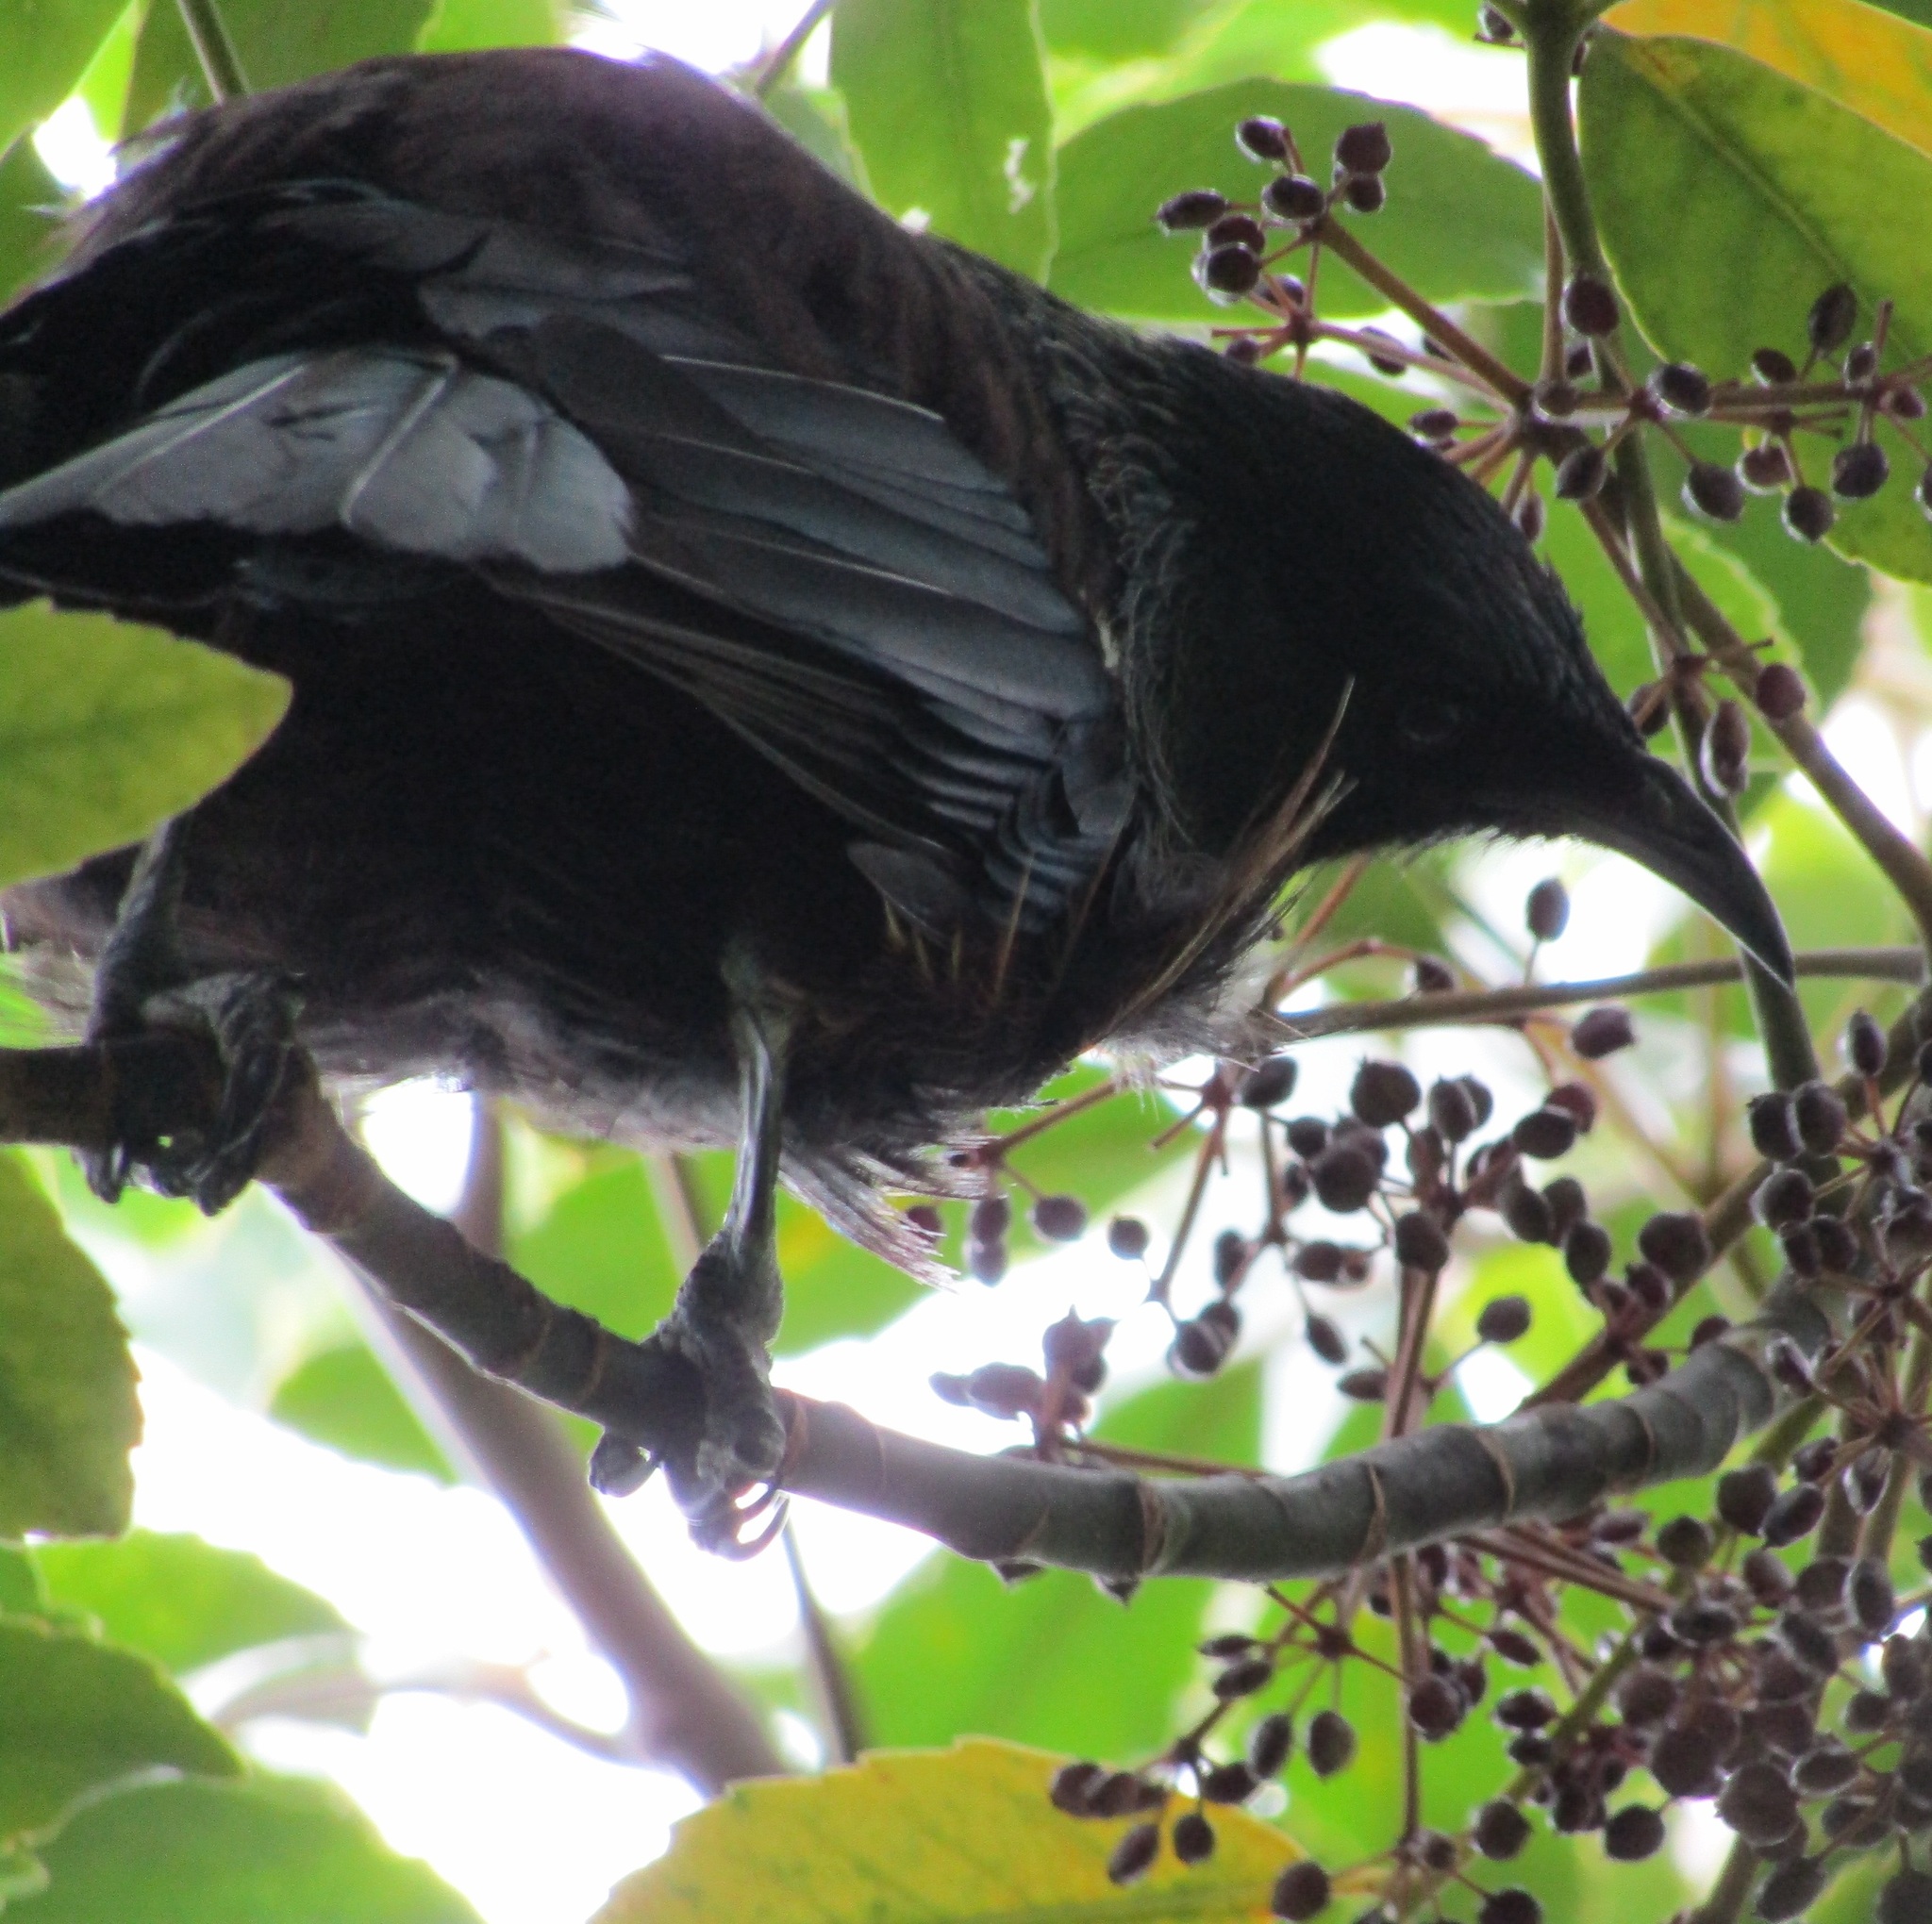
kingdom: Animalia
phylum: Chordata
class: Aves
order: Passeriformes
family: Meliphagidae
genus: Prosthemadera
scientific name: Prosthemadera novaeseelandiae
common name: Tui
